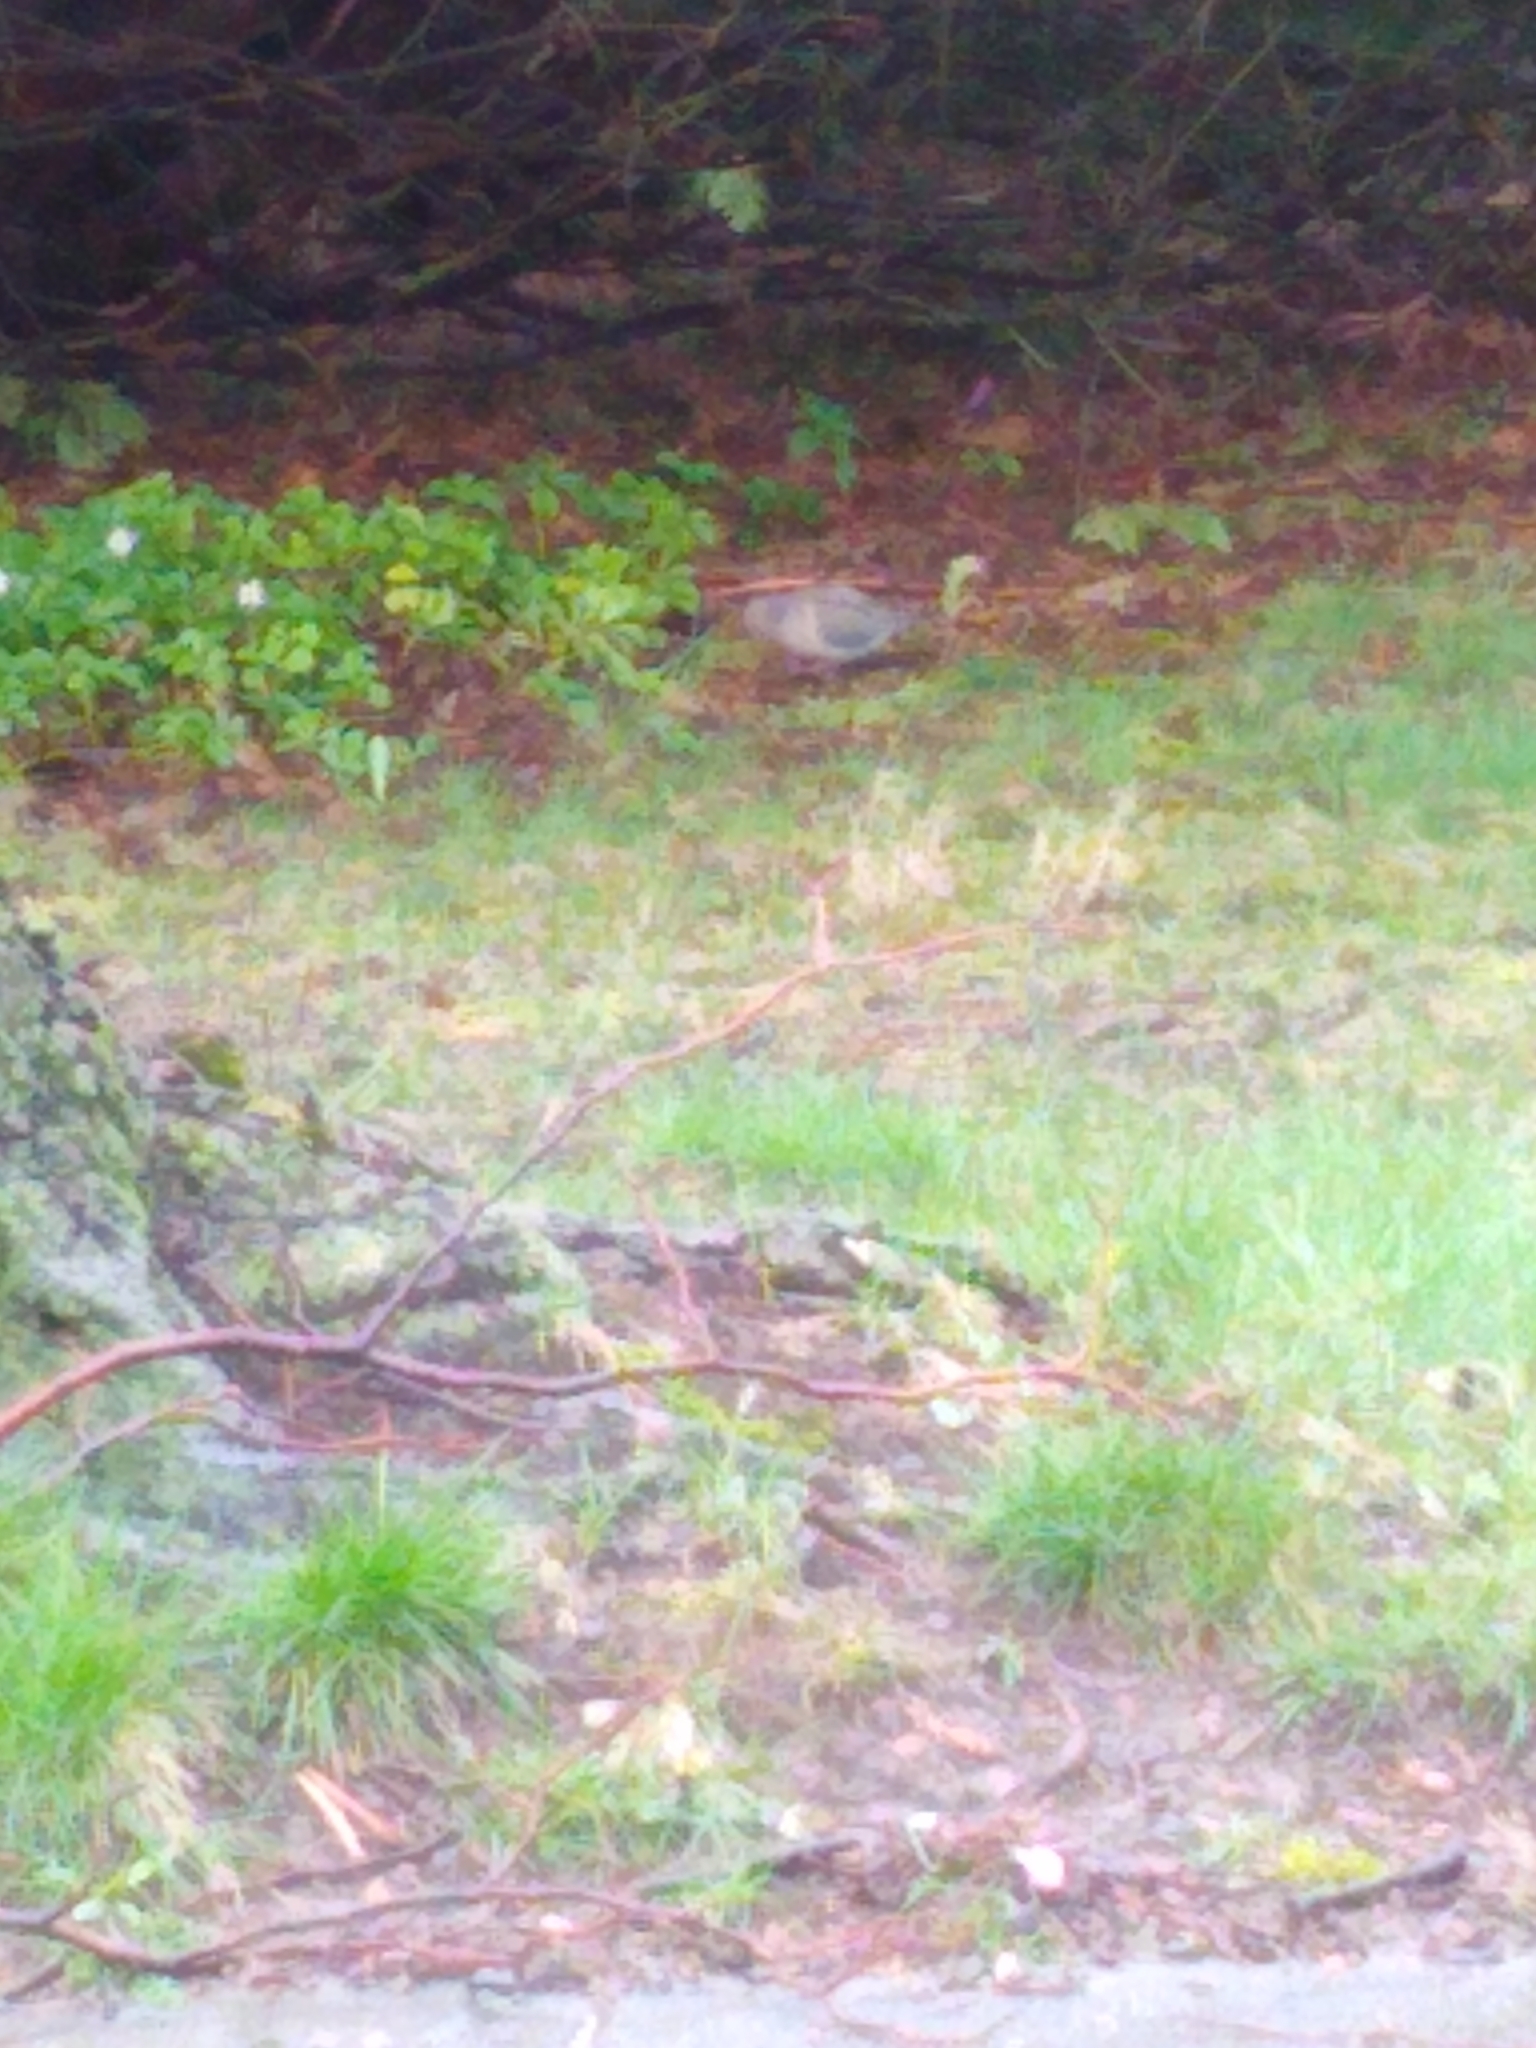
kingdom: Animalia
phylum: Chordata
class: Aves
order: Columbiformes
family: Columbidae
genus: Zenaida
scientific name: Zenaida macroura
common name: Mourning dove
